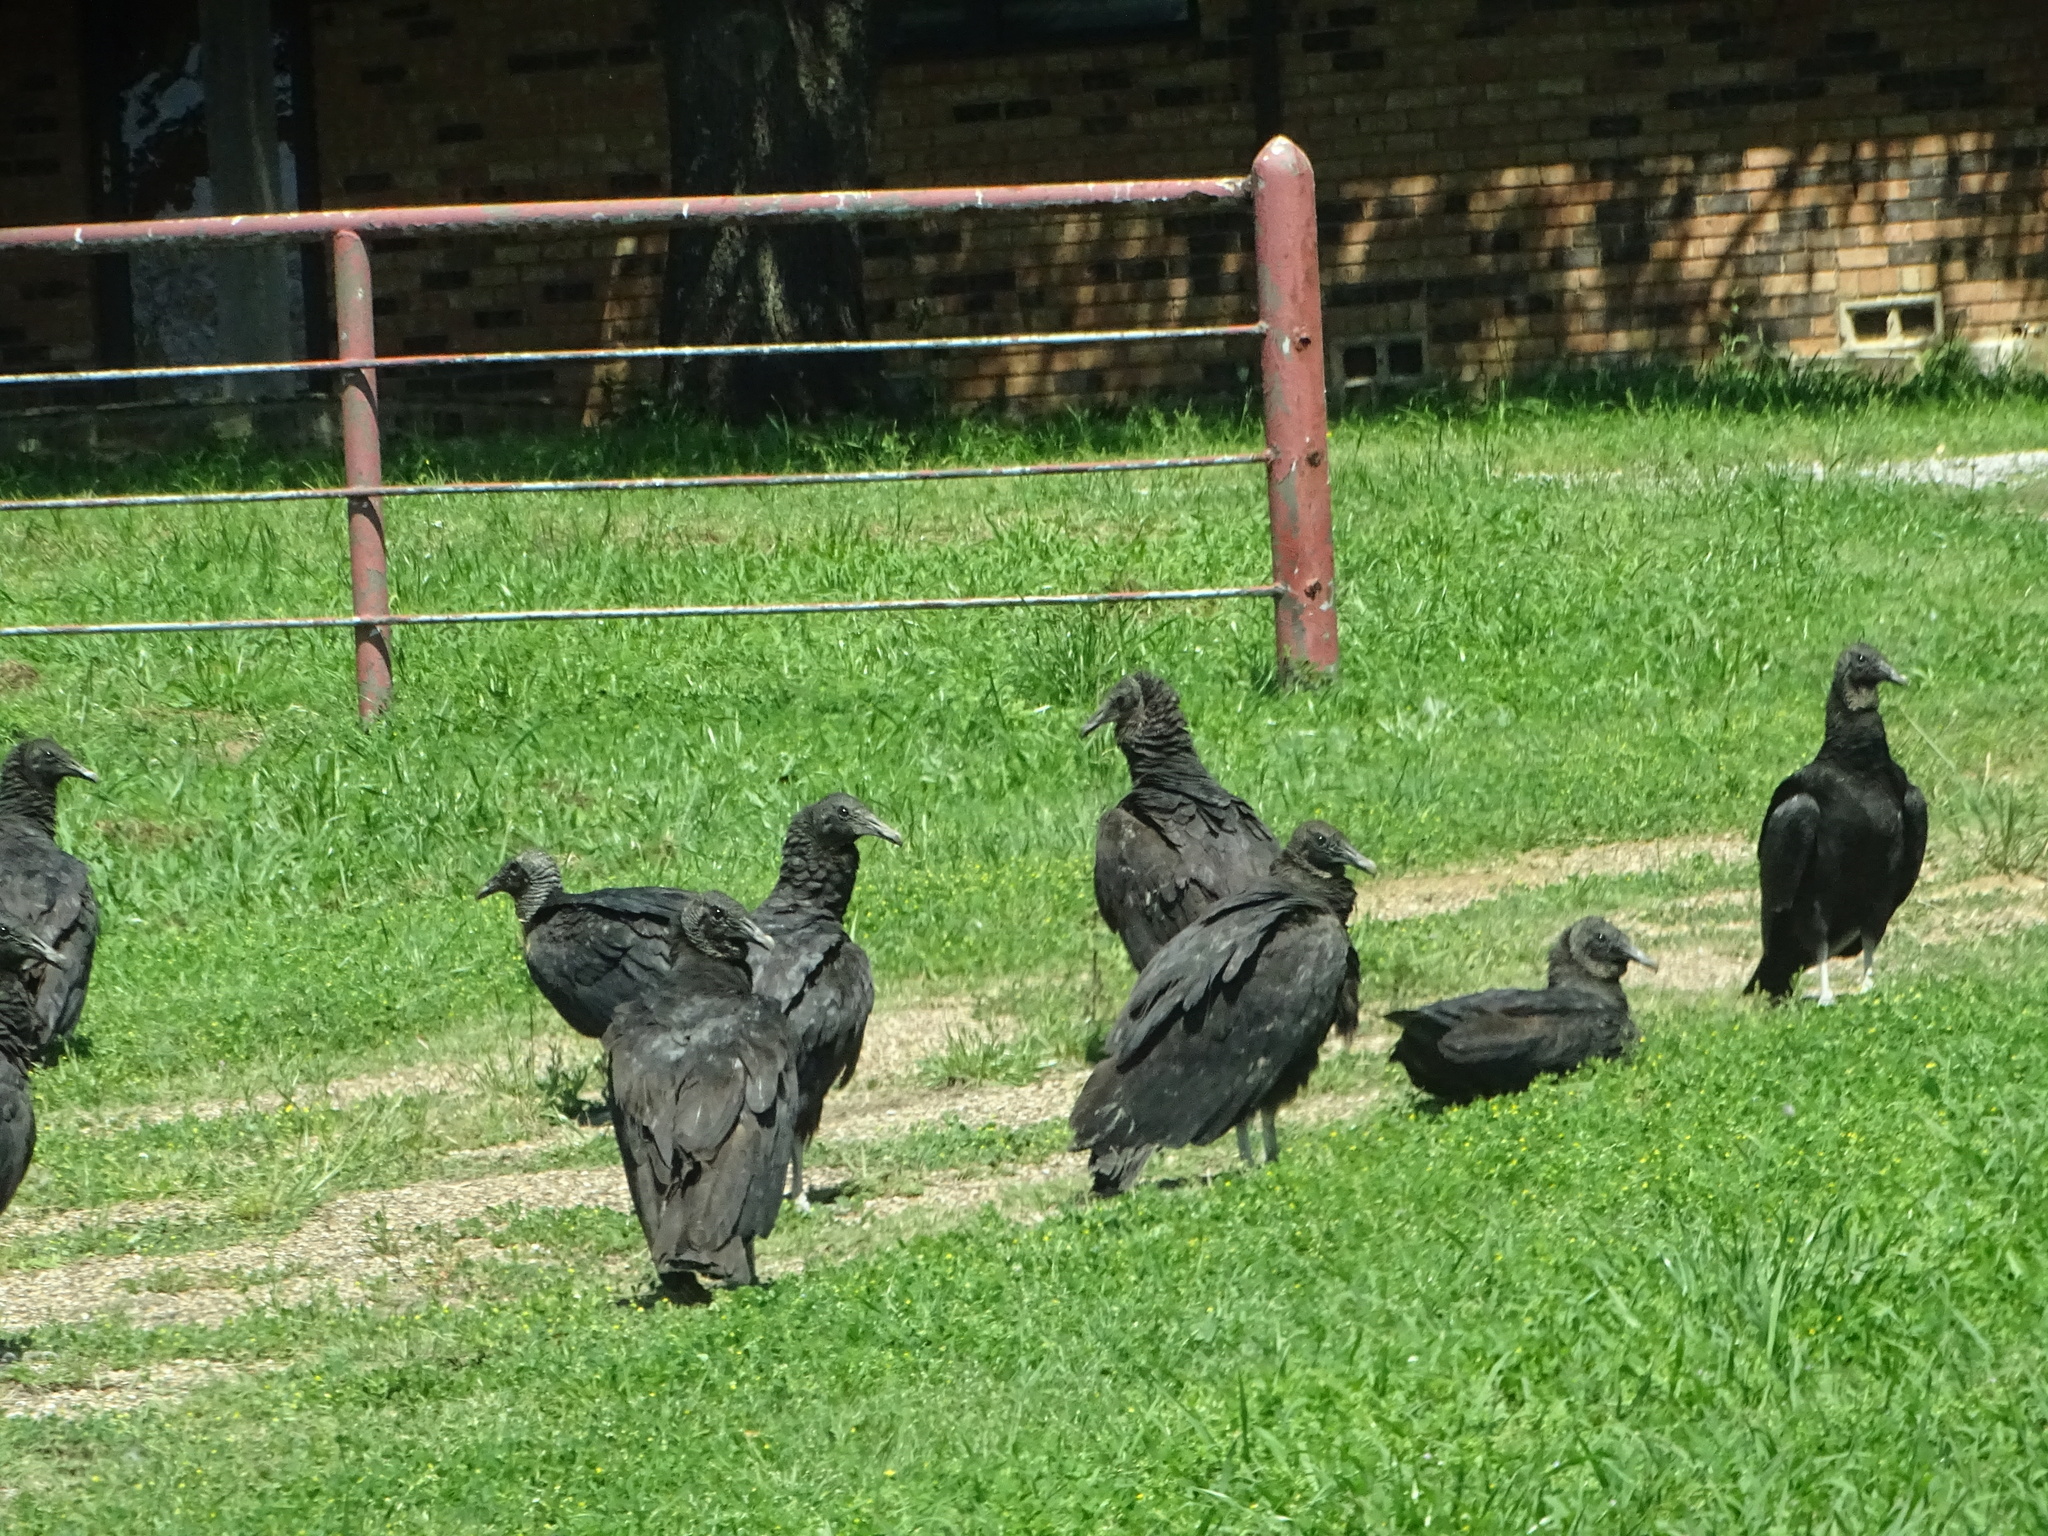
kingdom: Animalia
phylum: Chordata
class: Aves
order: Accipitriformes
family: Cathartidae
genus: Coragyps
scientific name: Coragyps atratus
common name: Black vulture
